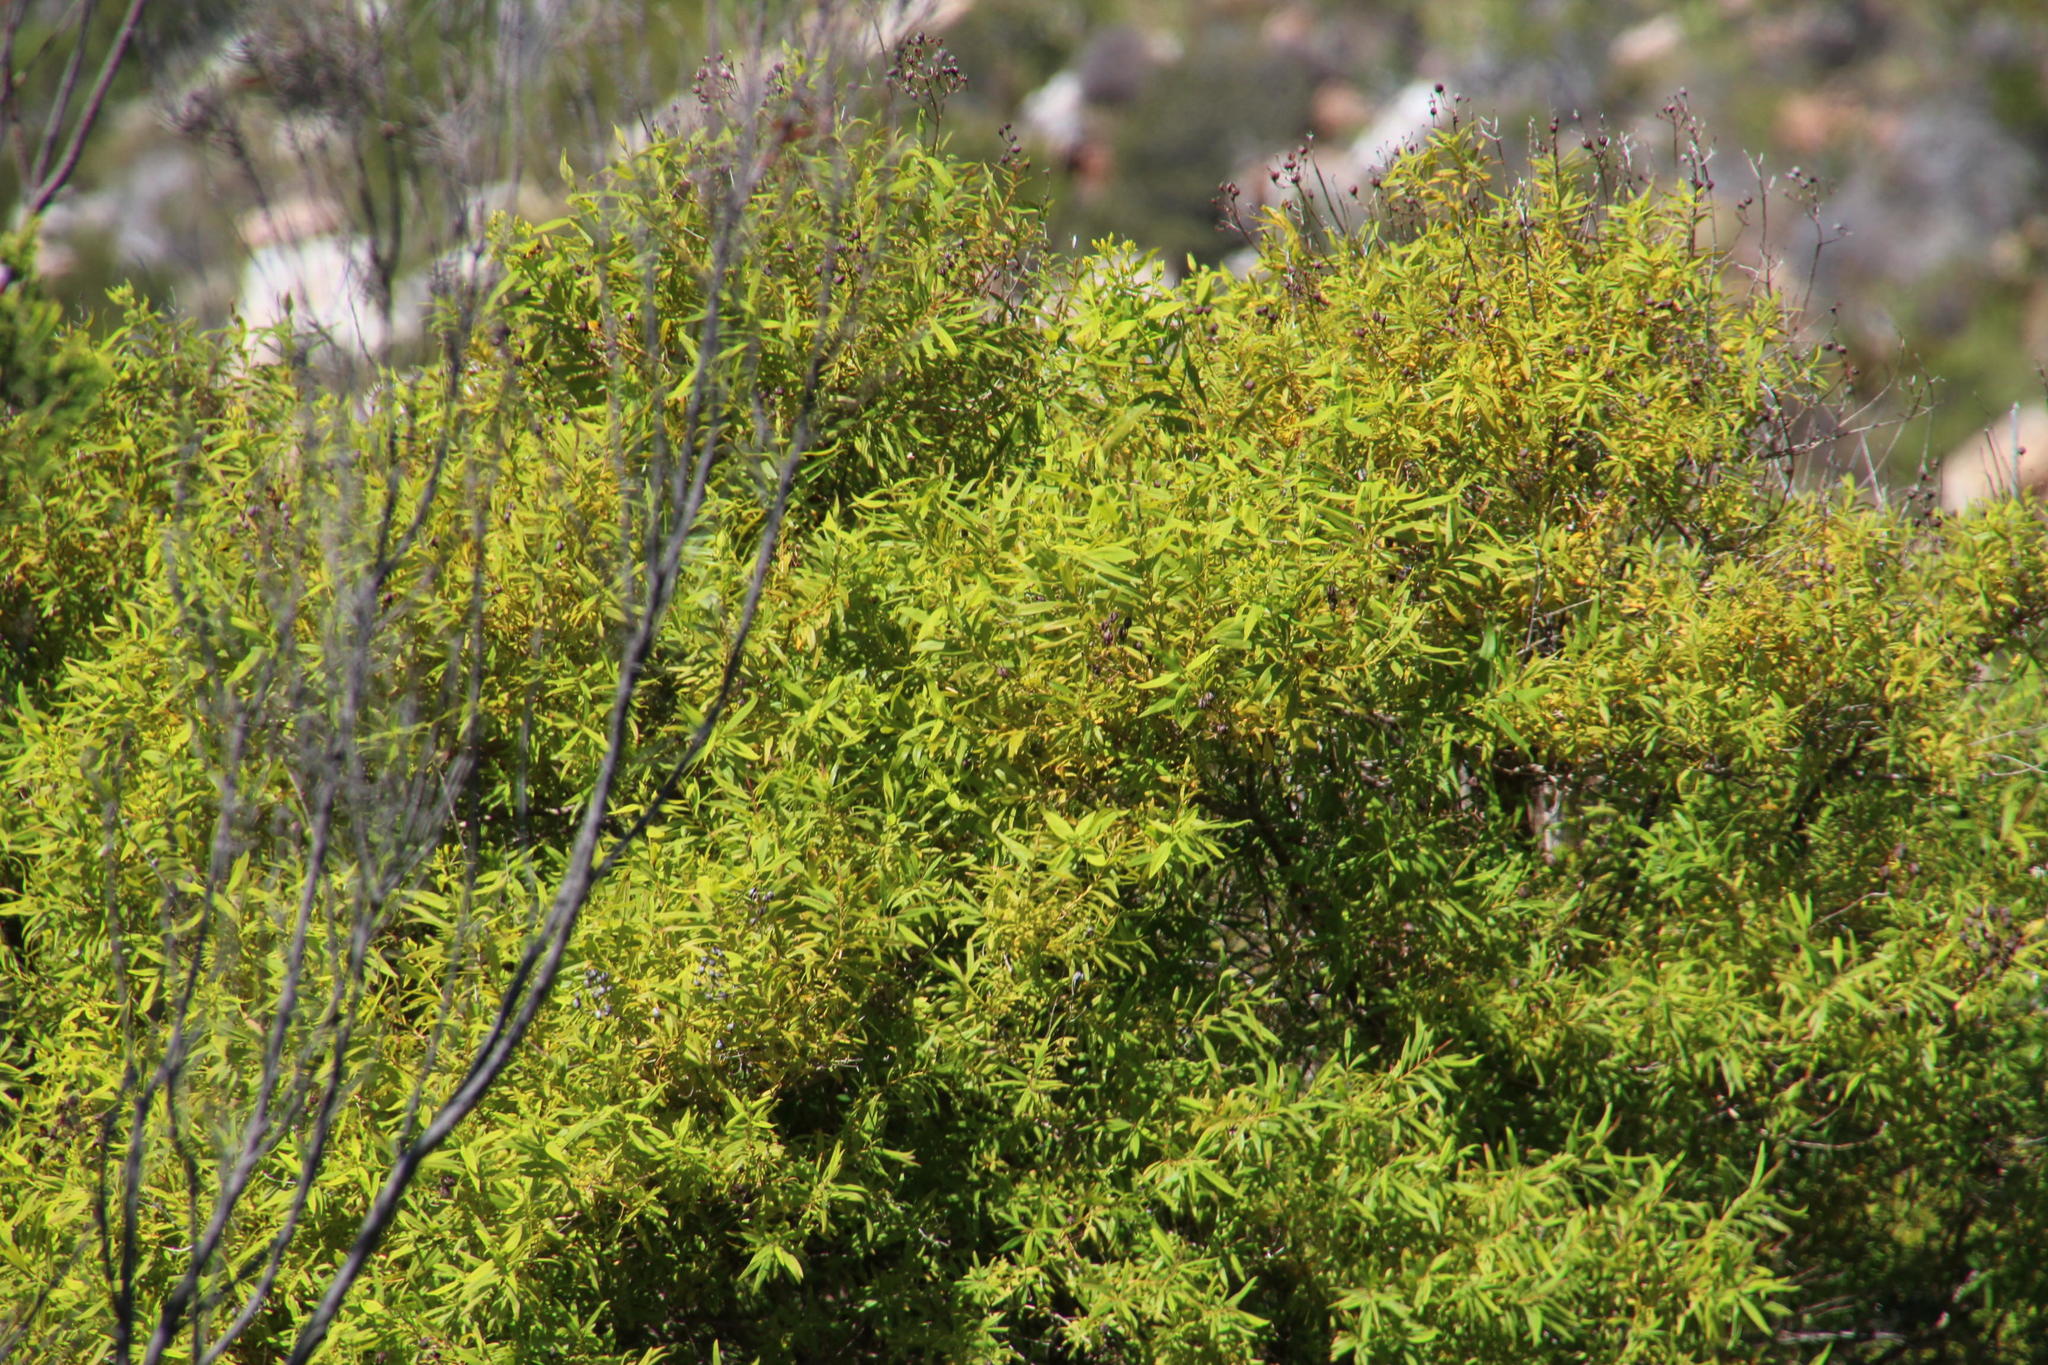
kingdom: Plantae
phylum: Tracheophyta
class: Magnoliopsida
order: Malpighiales
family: Hypericaceae
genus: Hypericum
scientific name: Hypericum canariense
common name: Canary island st. johnswort
